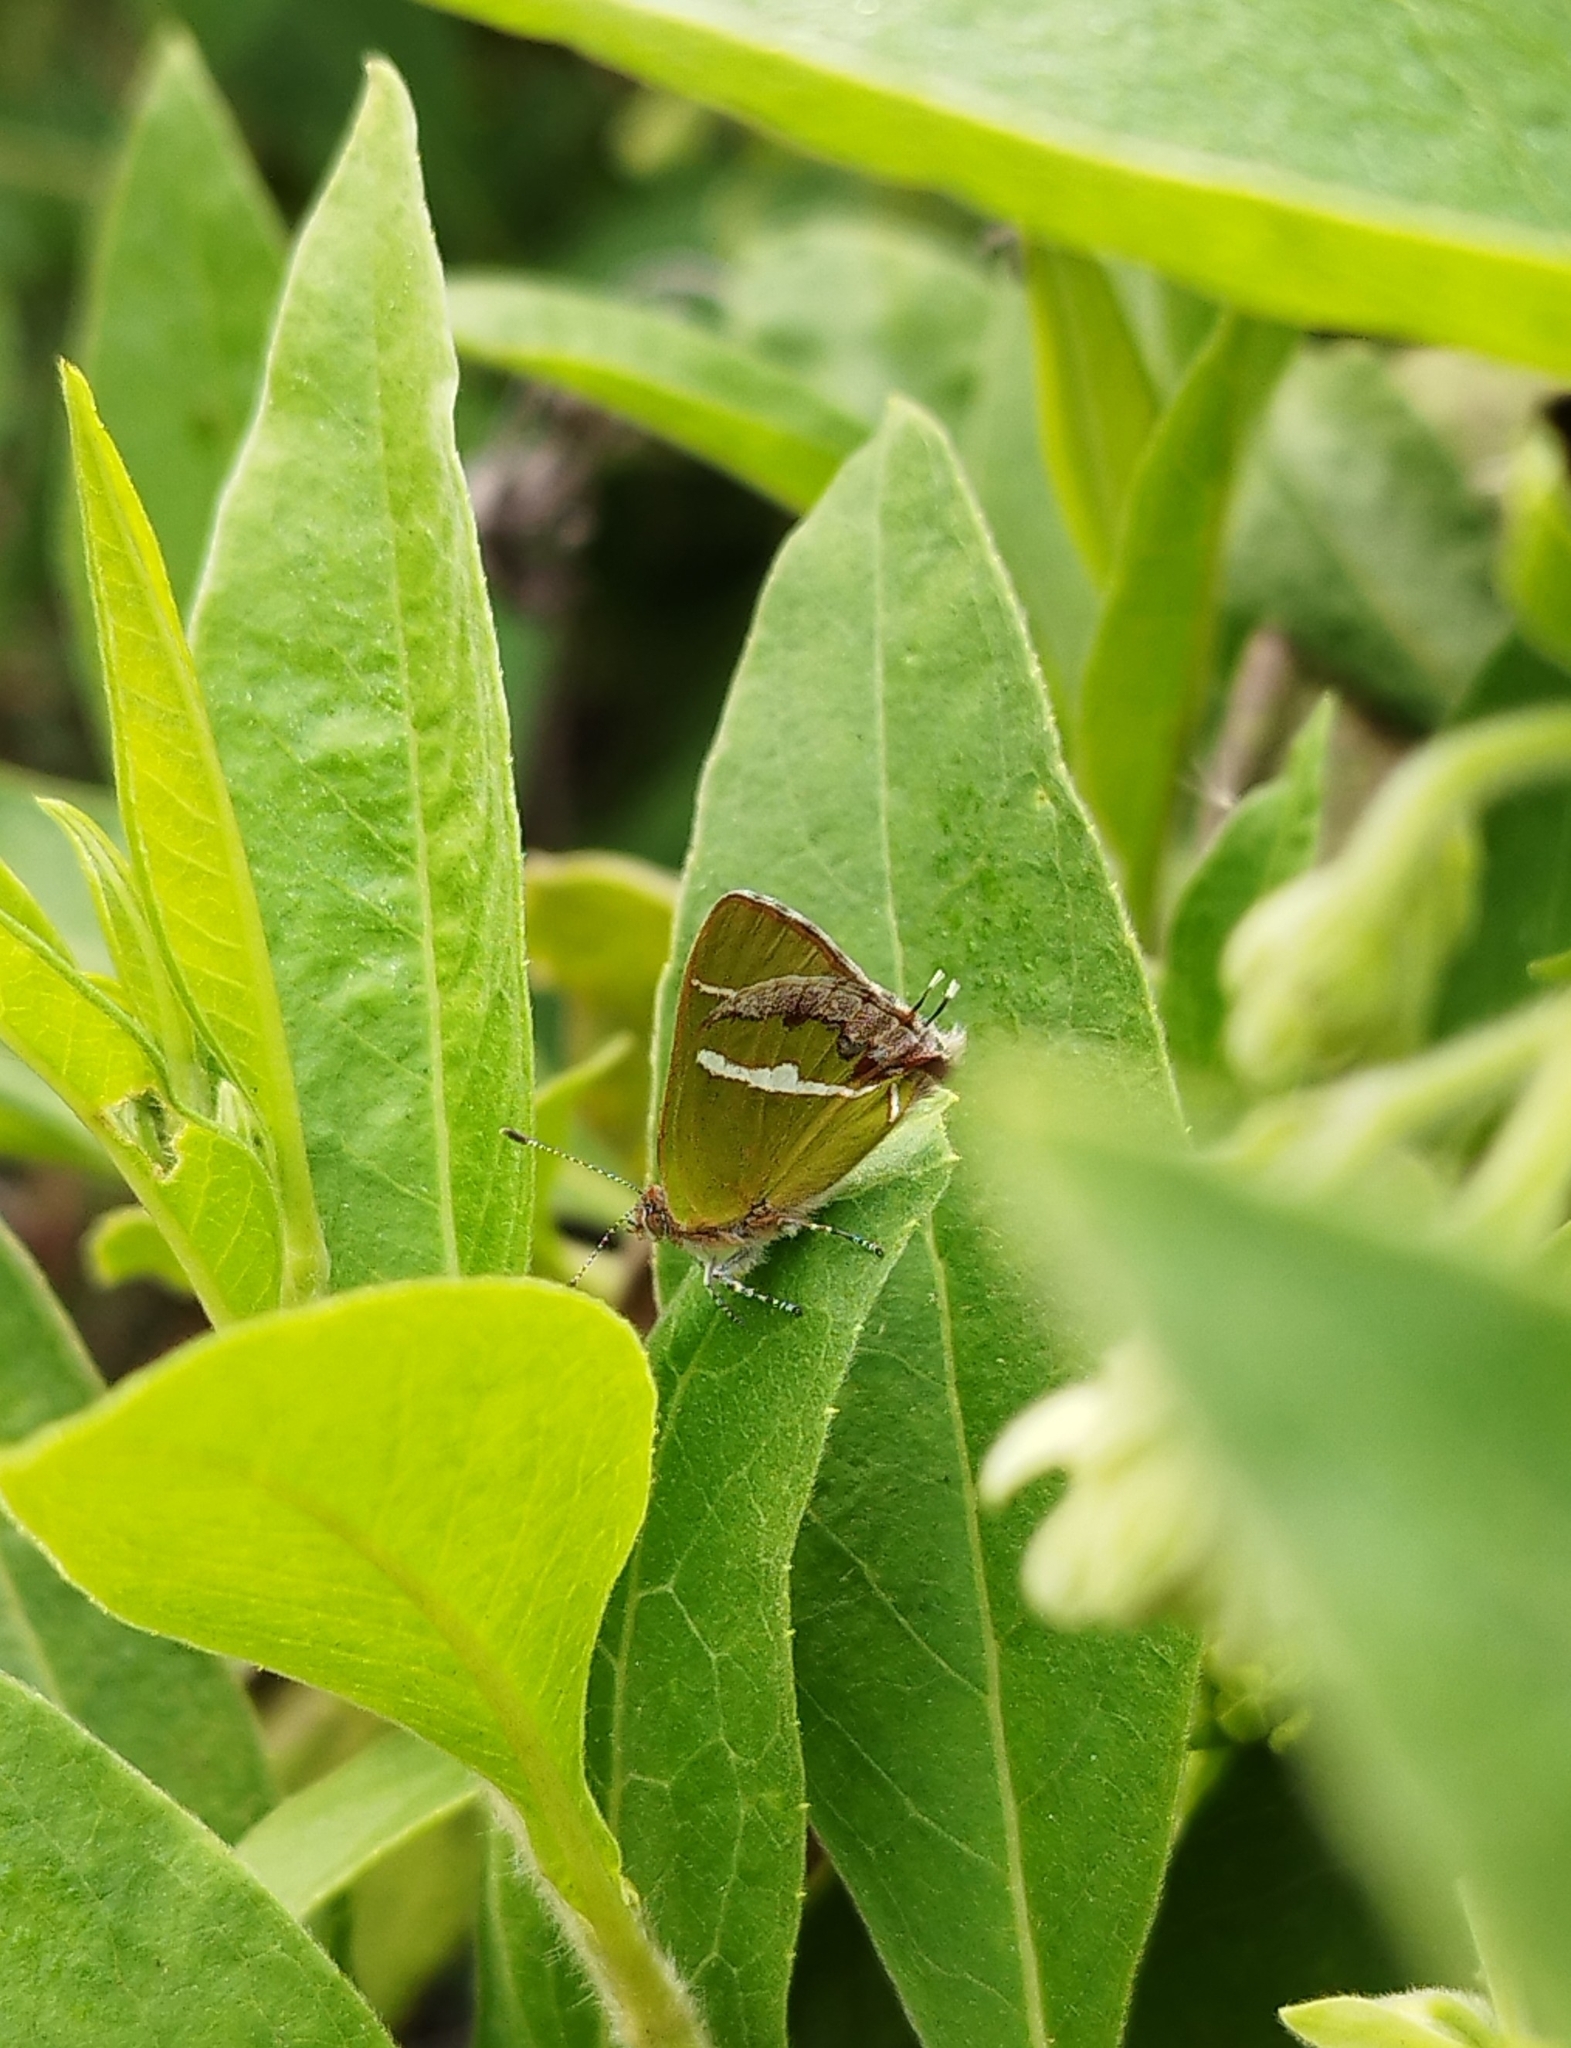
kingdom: Animalia
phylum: Arthropoda
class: Insecta
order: Lepidoptera
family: Lycaenidae
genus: Chlorostrymon
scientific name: Chlorostrymon simaethis
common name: Silver-banded hairstreak
